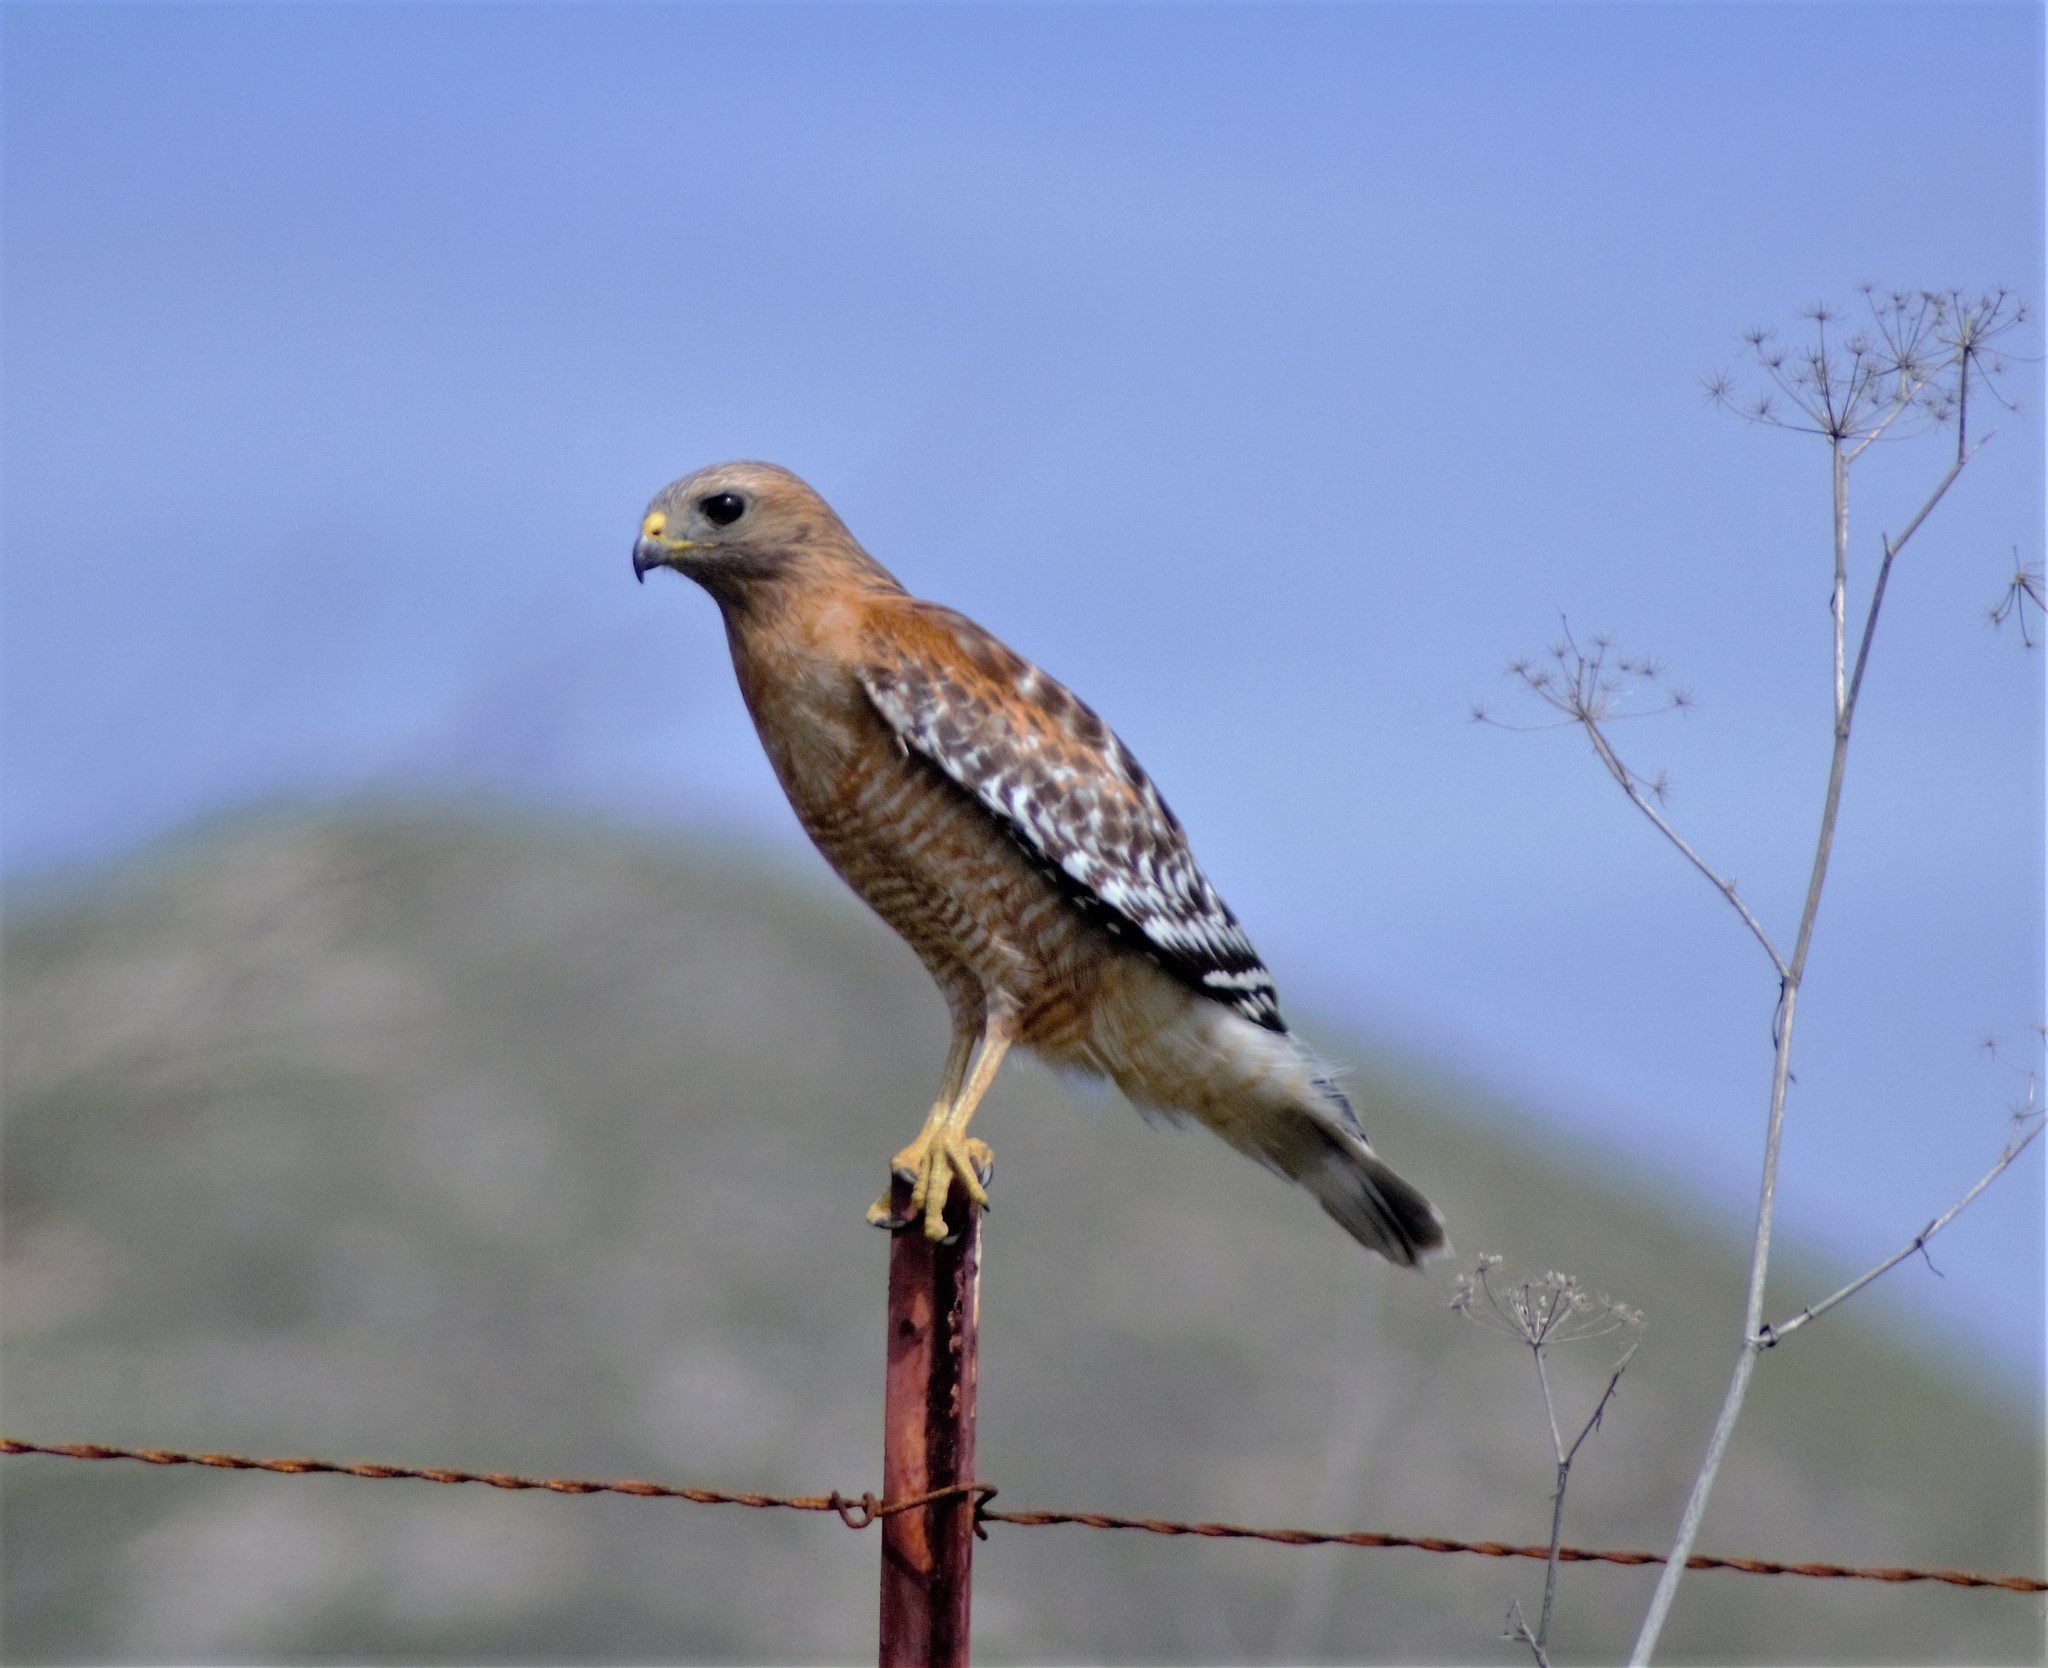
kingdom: Animalia
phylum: Chordata
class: Aves
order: Accipitriformes
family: Accipitridae
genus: Buteo
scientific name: Buteo lineatus
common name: Red-shouldered hawk
